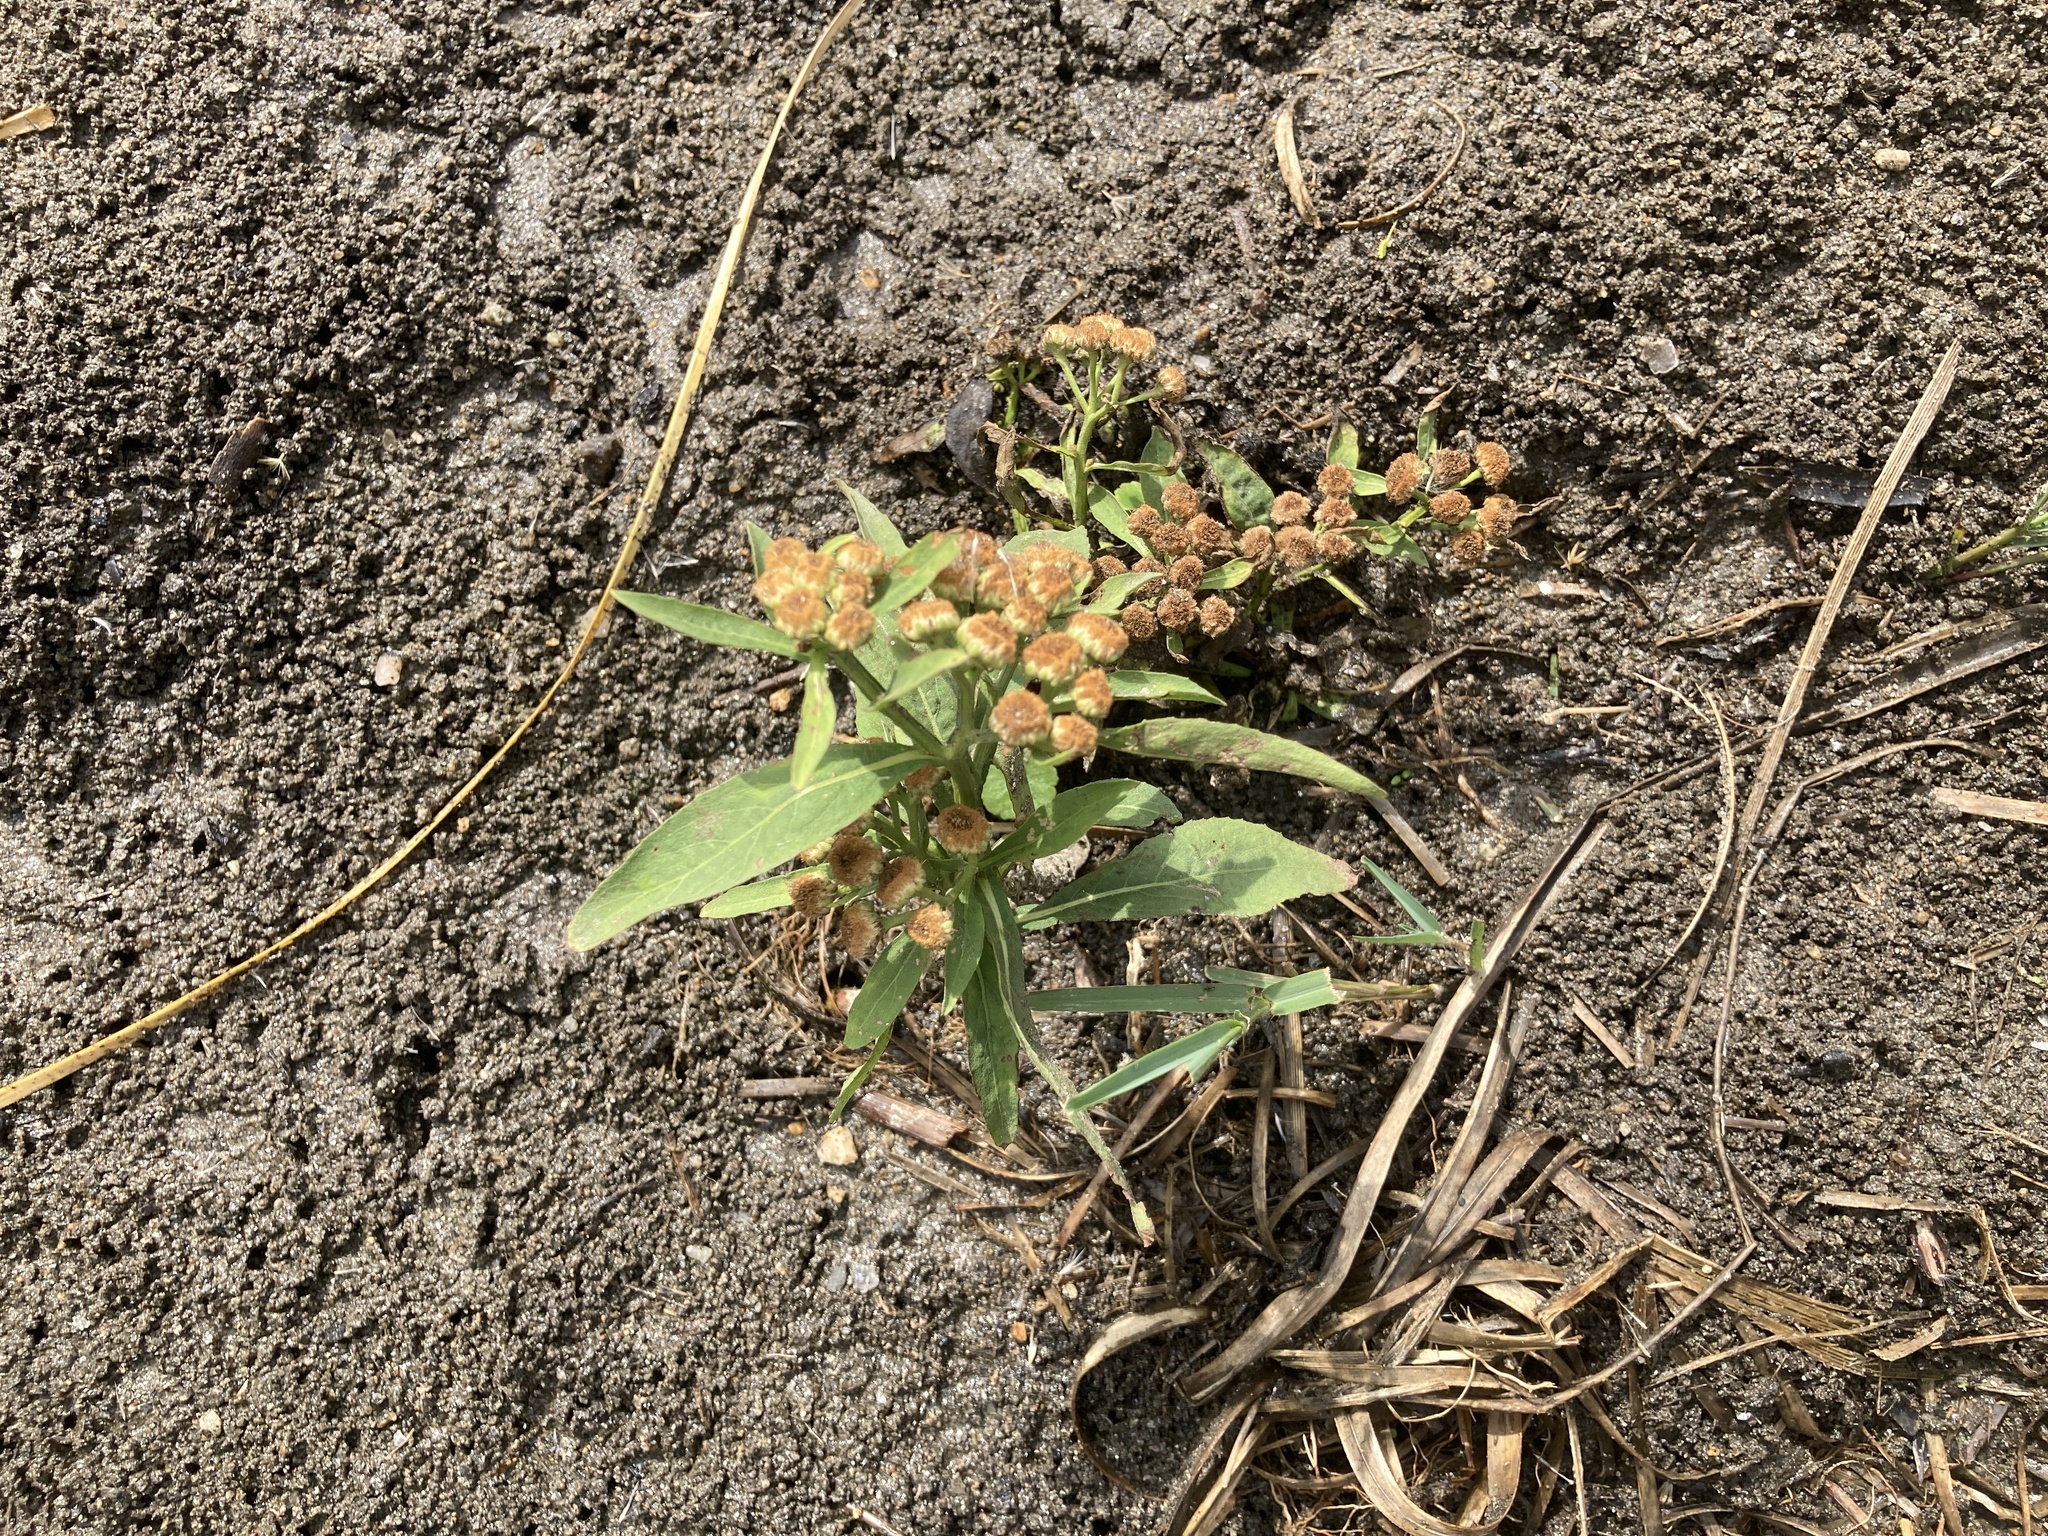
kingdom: Plantae
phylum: Tracheophyta
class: Magnoliopsida
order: Asterales
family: Asteraceae
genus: Pluchea
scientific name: Pluchea sagittalis
